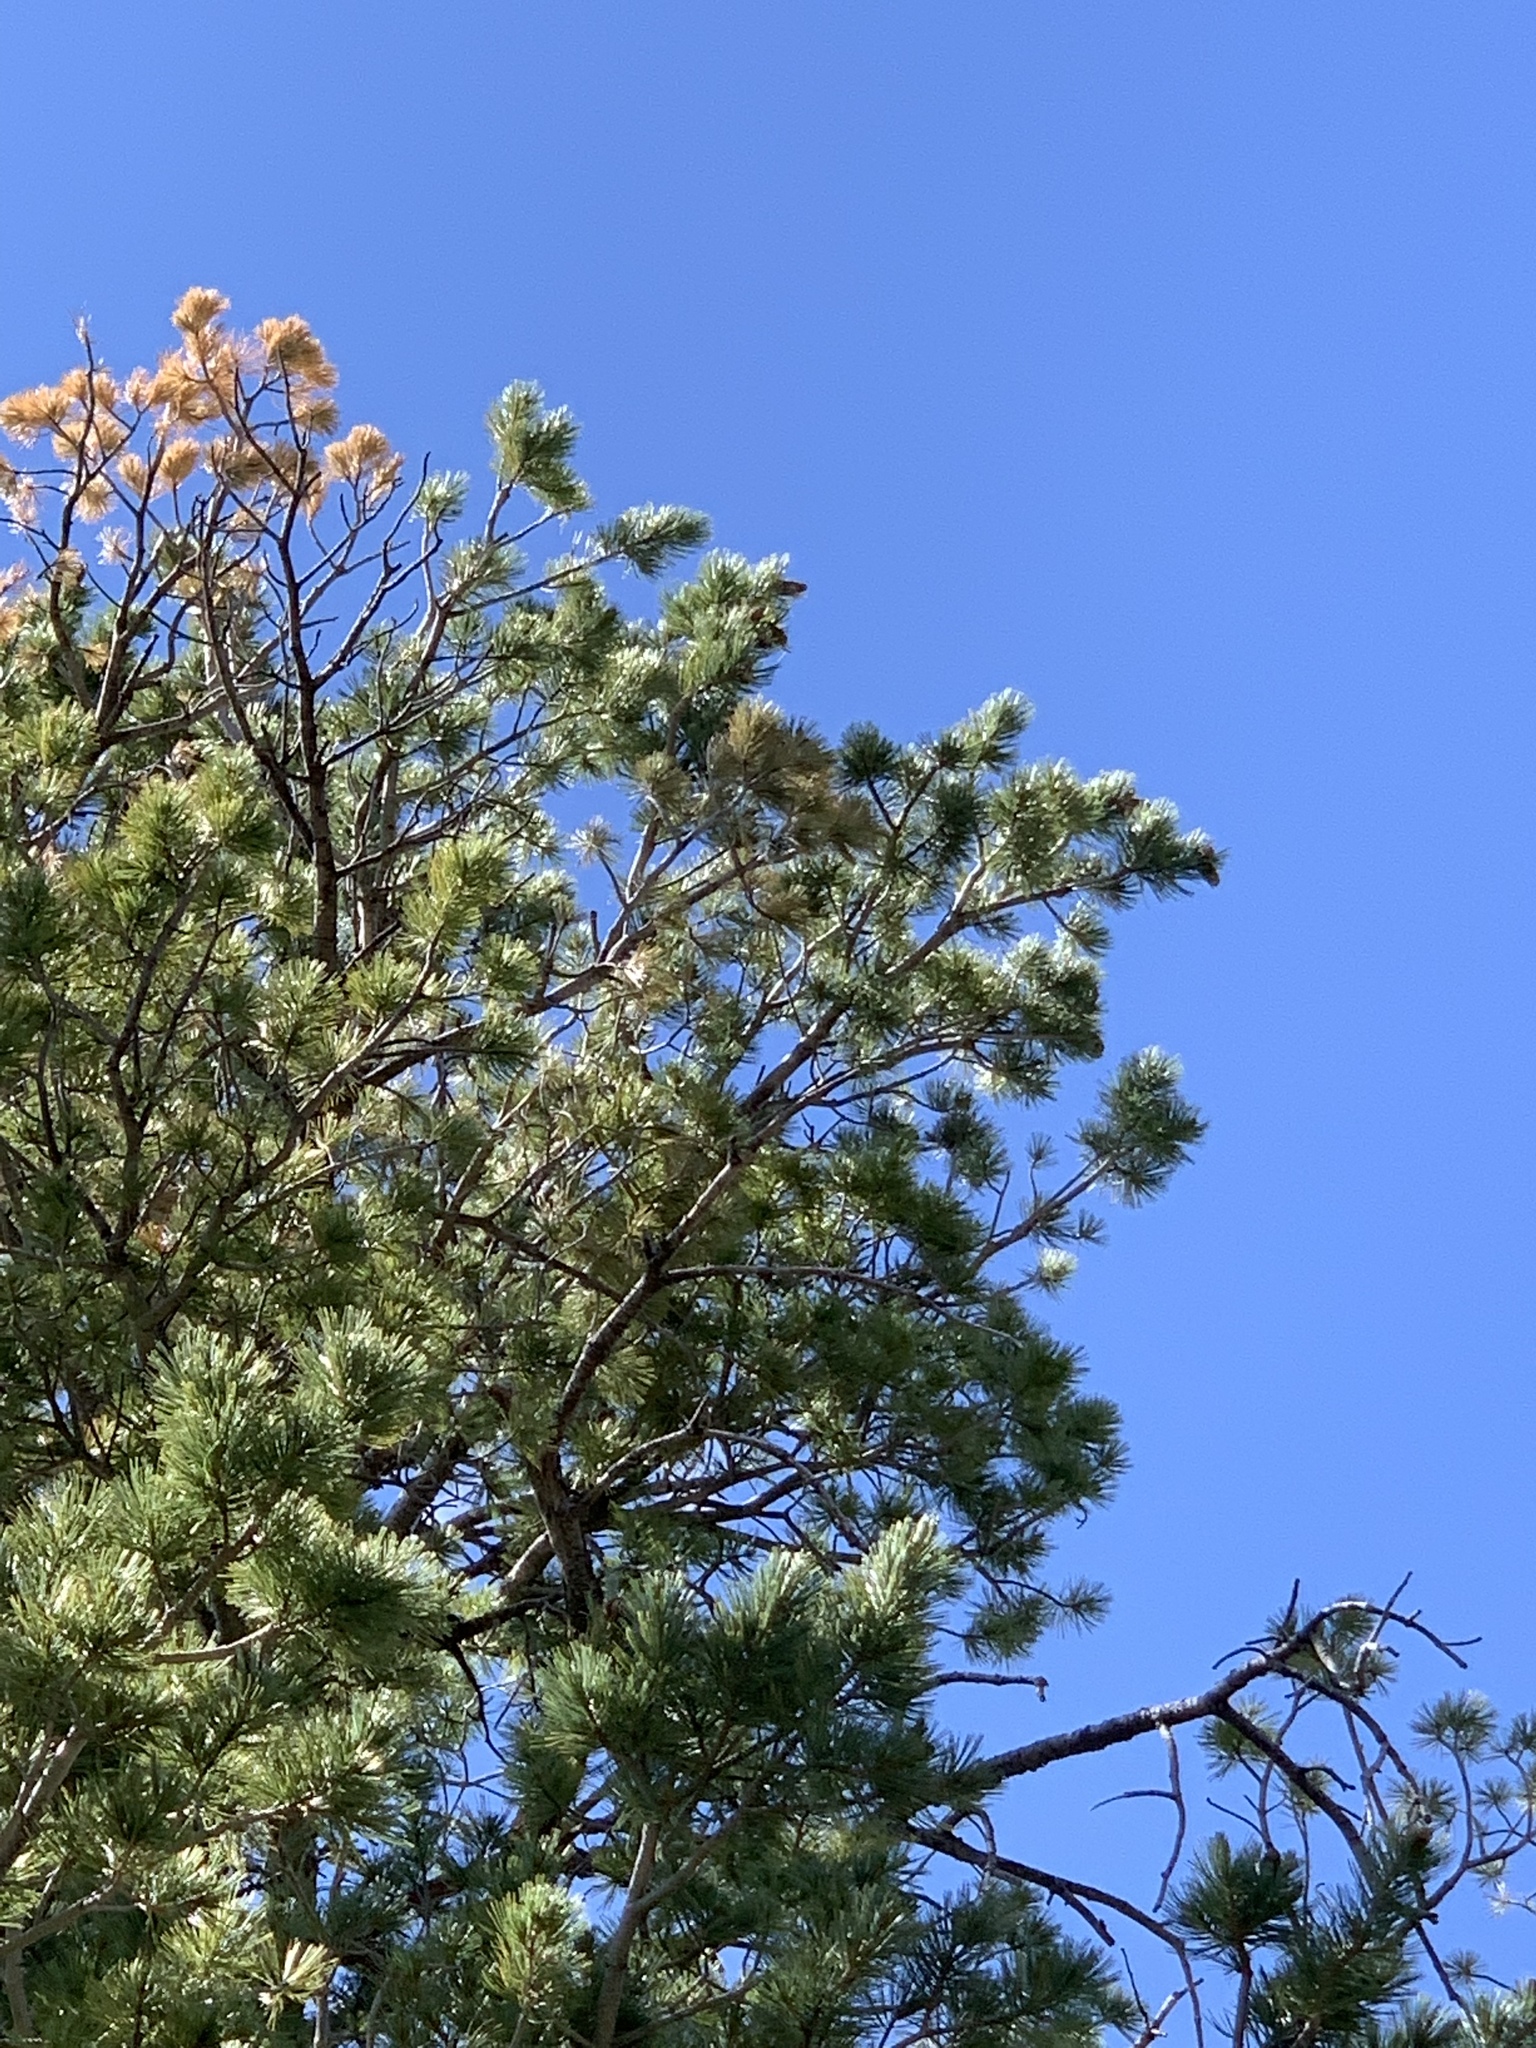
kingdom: Plantae
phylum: Tracheophyta
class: Pinopsida
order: Pinales
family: Pinaceae
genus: Pinus
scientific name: Pinus strobiformis
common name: Southwestern white pine
